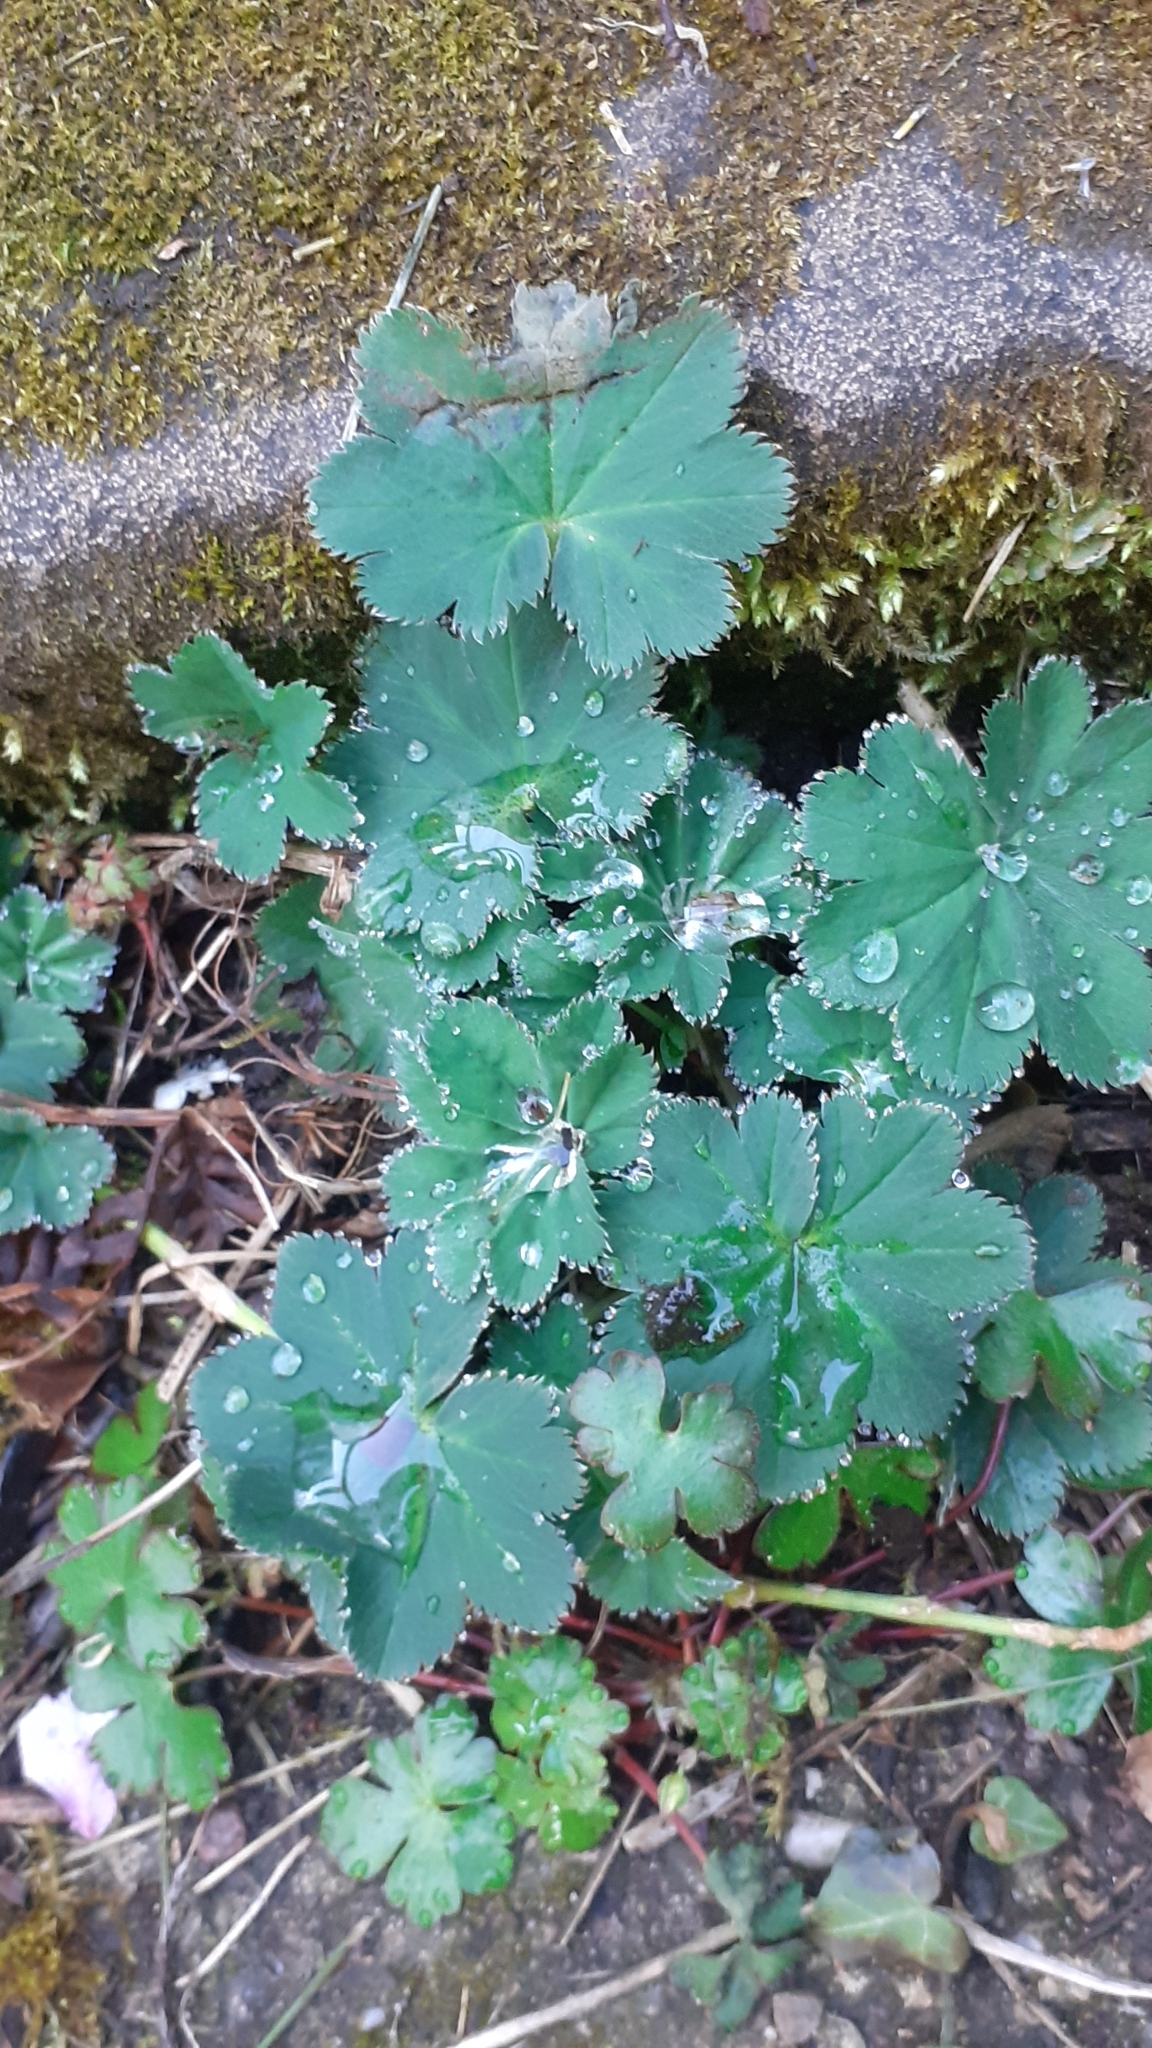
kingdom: Plantae
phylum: Tracheophyta
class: Magnoliopsida
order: Rosales
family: Rosaceae
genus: Alchemilla
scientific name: Alchemilla mollis
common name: Lady's-mantle
